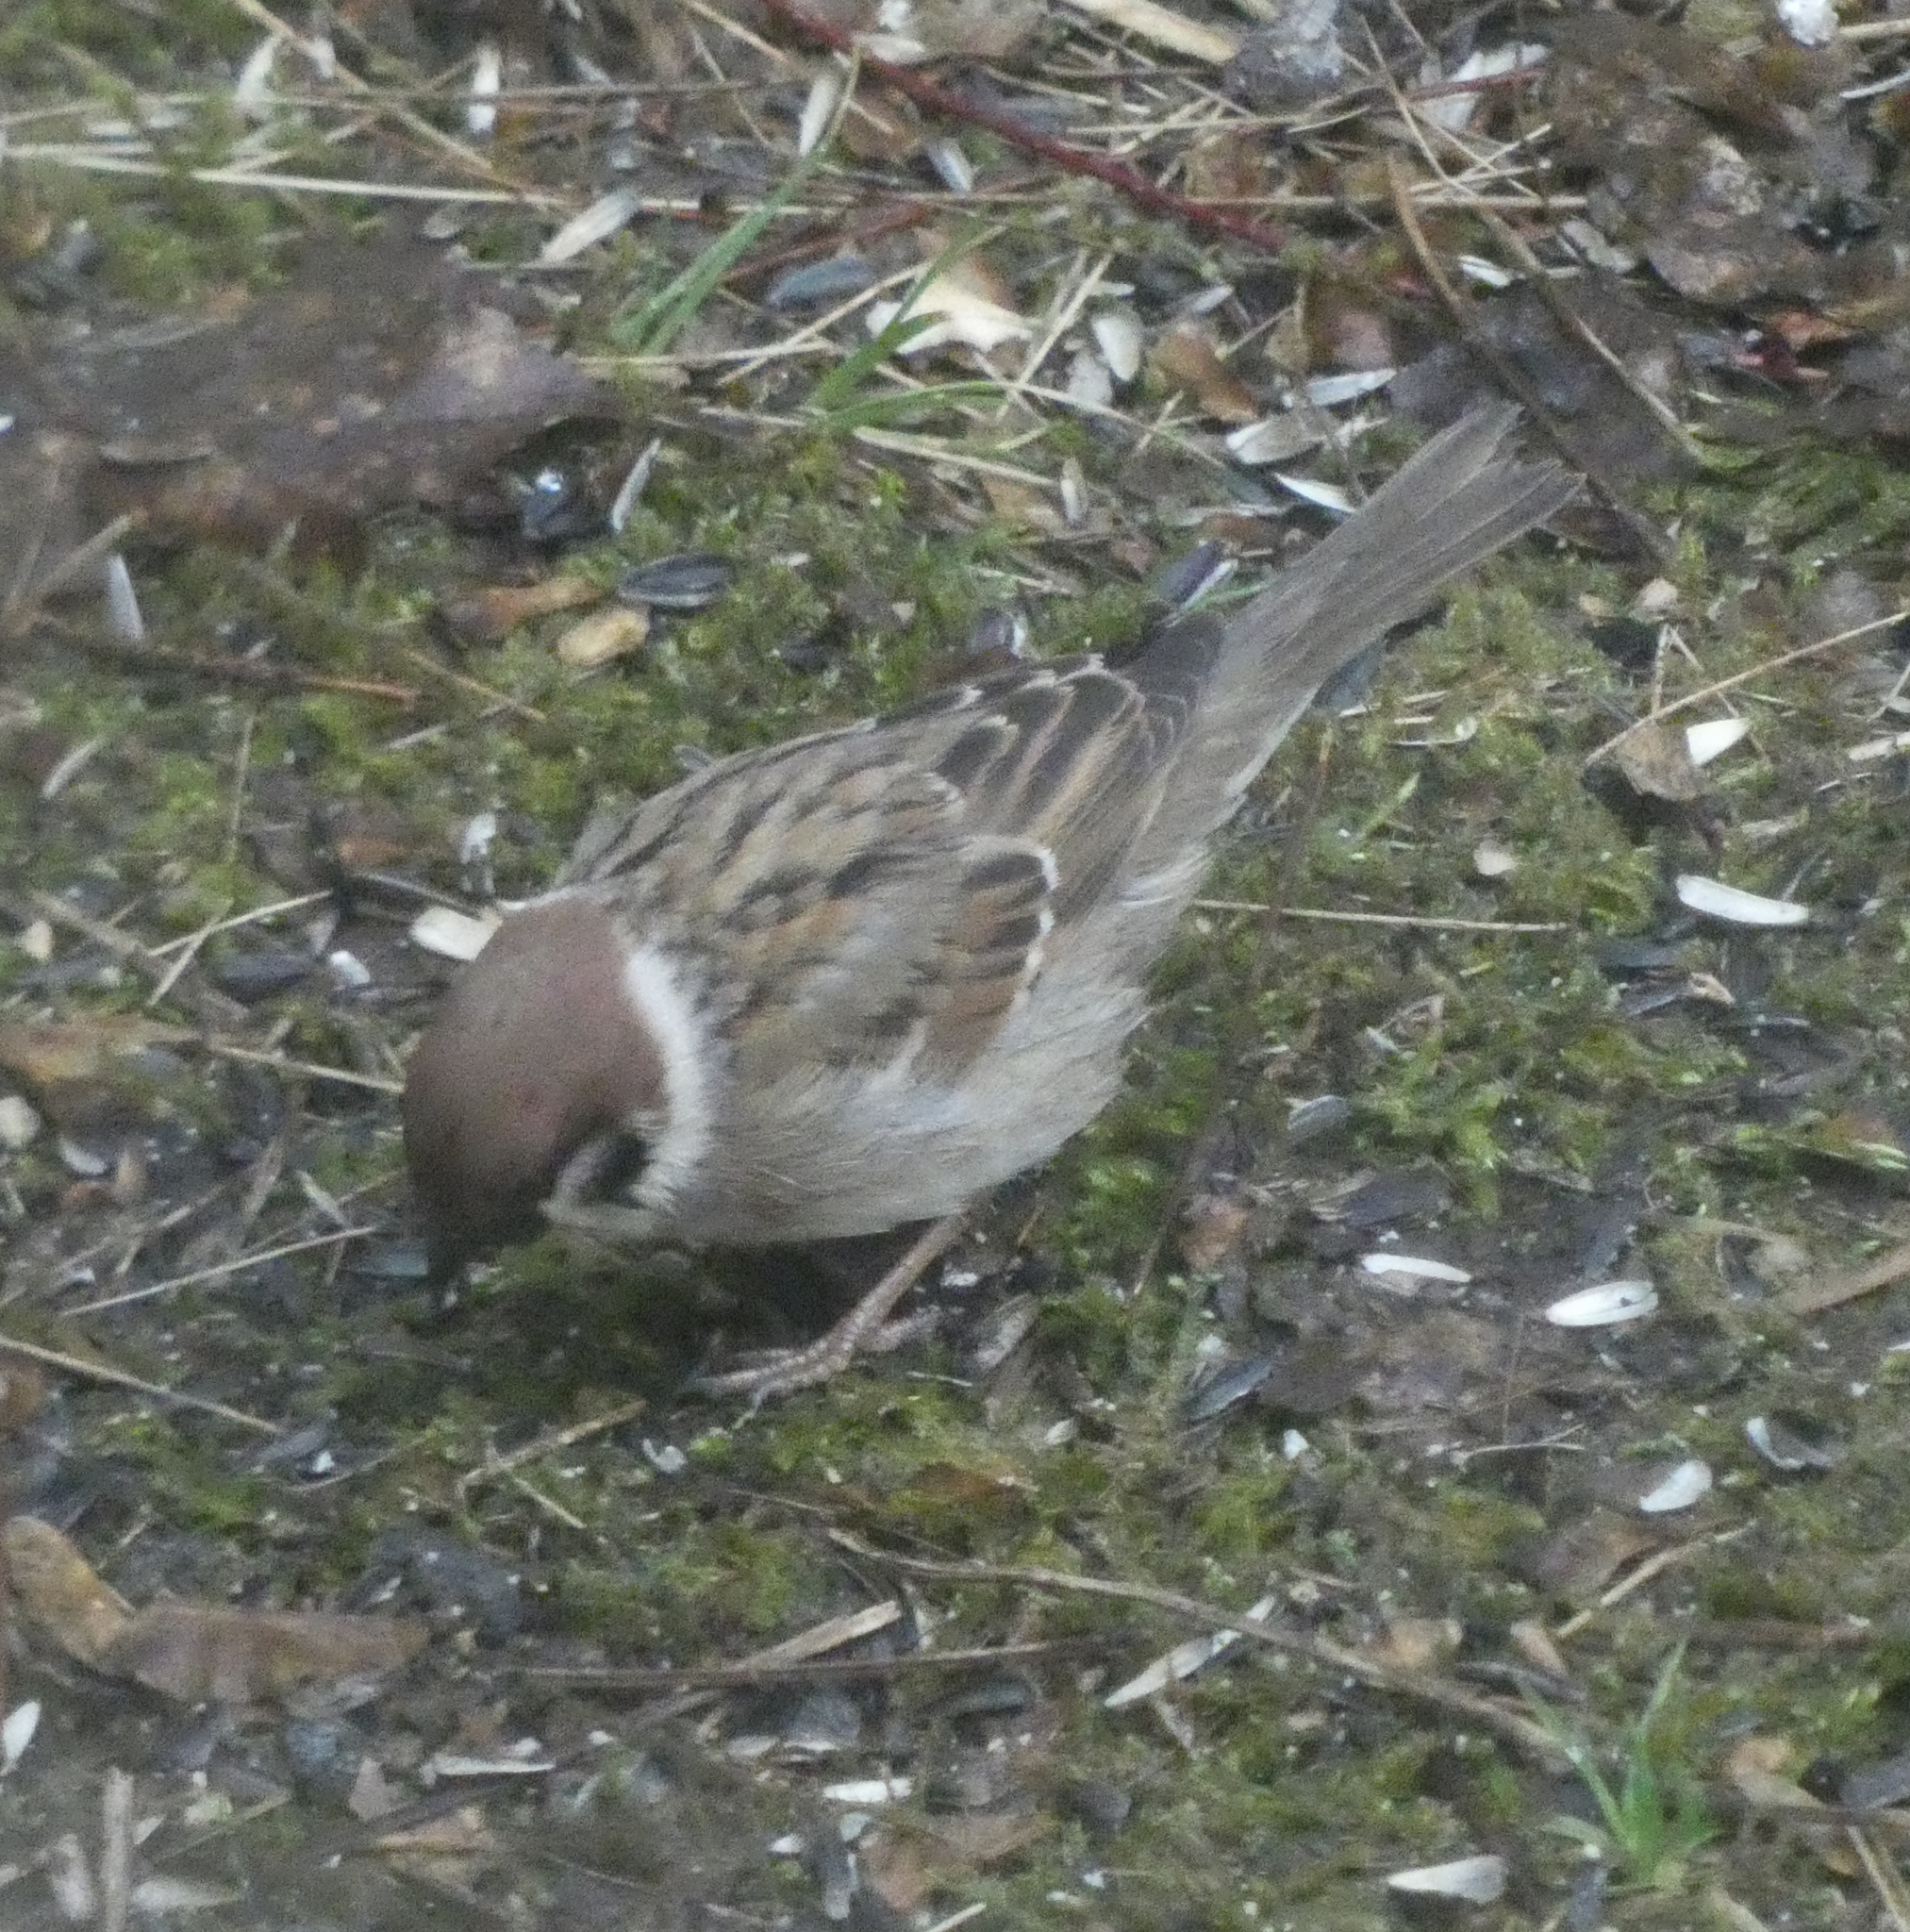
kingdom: Animalia
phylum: Chordata
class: Aves
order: Passeriformes
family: Passeridae
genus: Passer
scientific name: Passer montanus
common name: Eurasian tree sparrow
